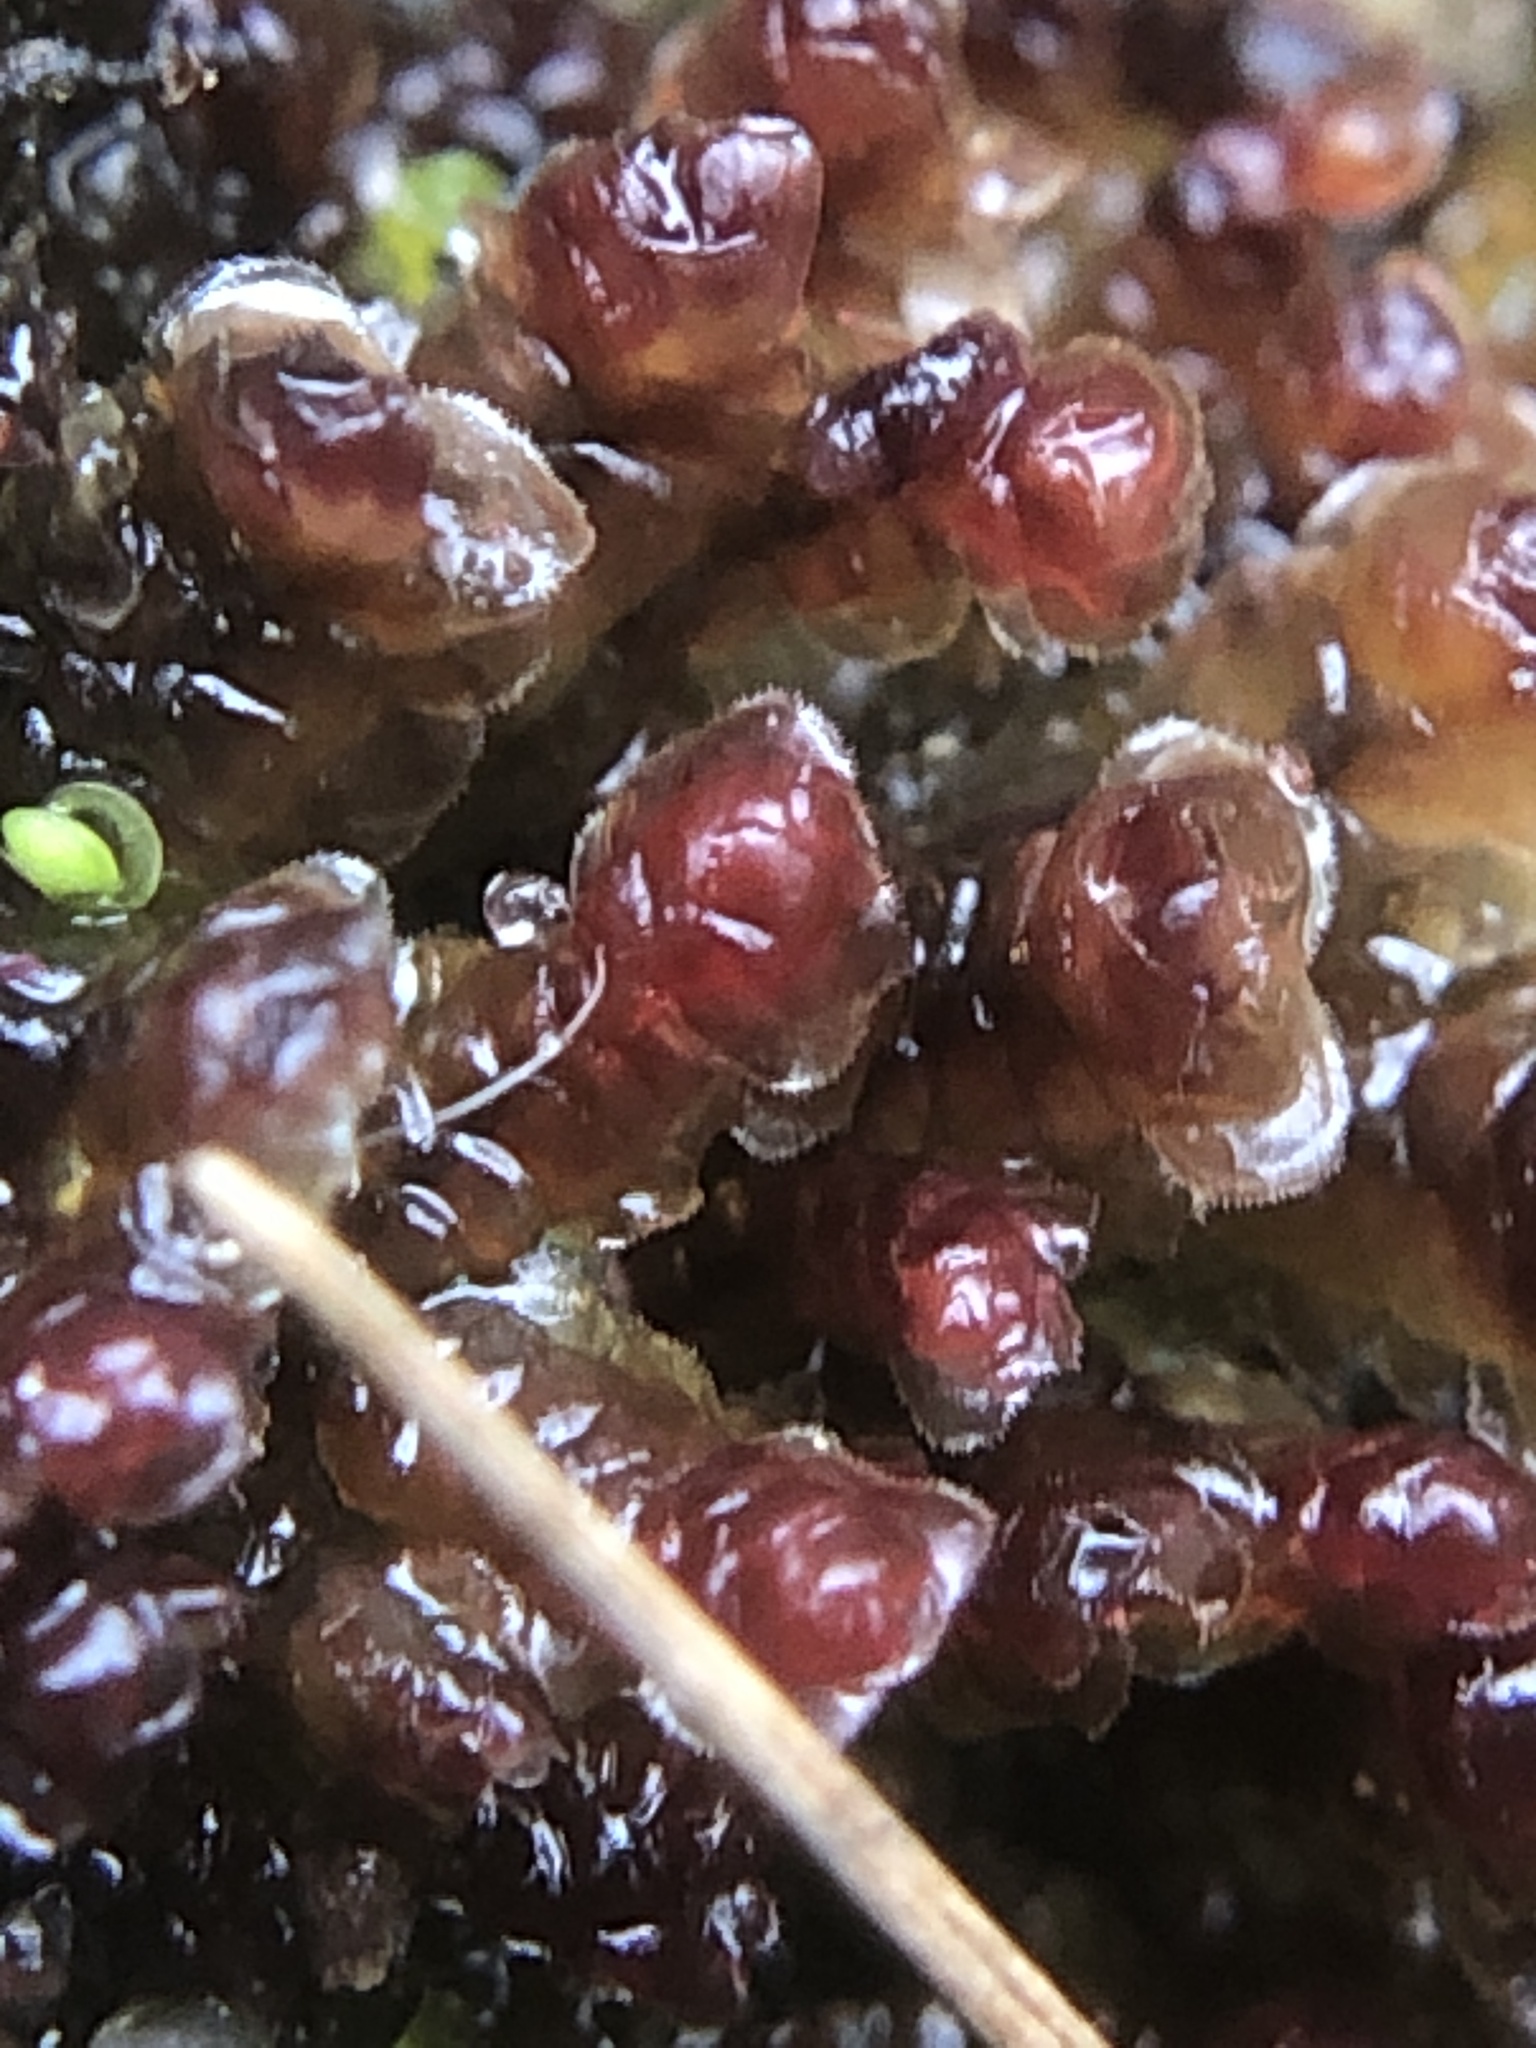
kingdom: Plantae
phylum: Marchantiophyta
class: Jungermanniopsida
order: Jungermanniales
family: Scapaniaceae
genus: Scapania
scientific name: Scapania undulata
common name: Water earwort
